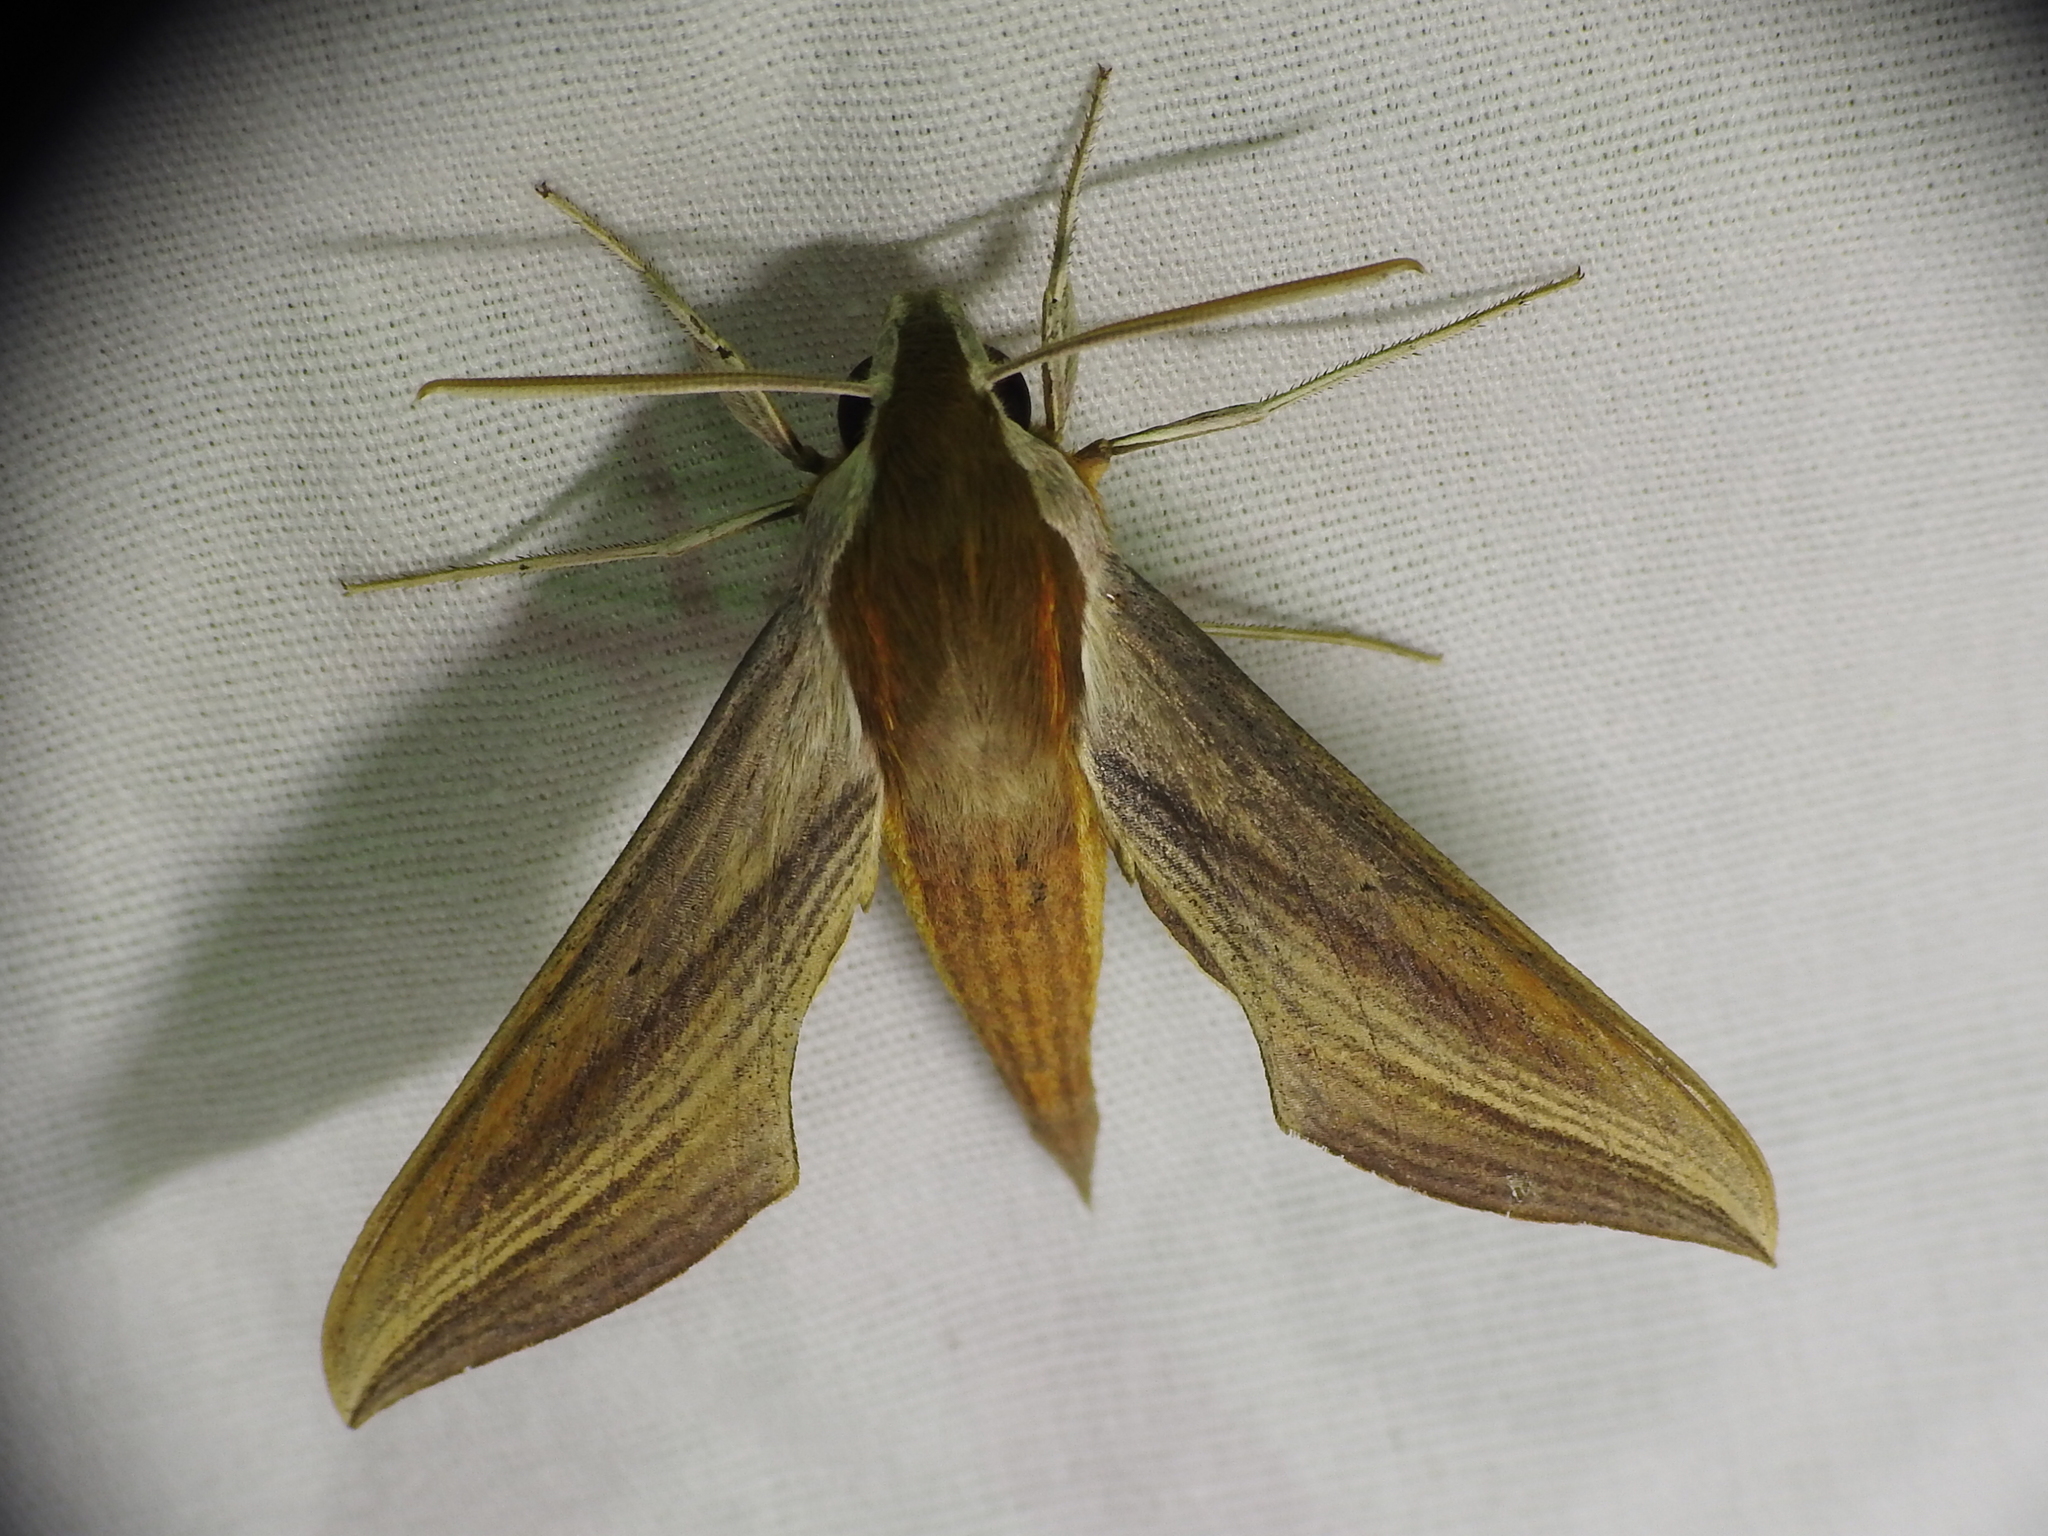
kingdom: Animalia
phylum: Arthropoda
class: Insecta
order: Lepidoptera
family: Sphingidae
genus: Xylophanes
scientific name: Xylophanes tersa
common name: Tersa sphinx
